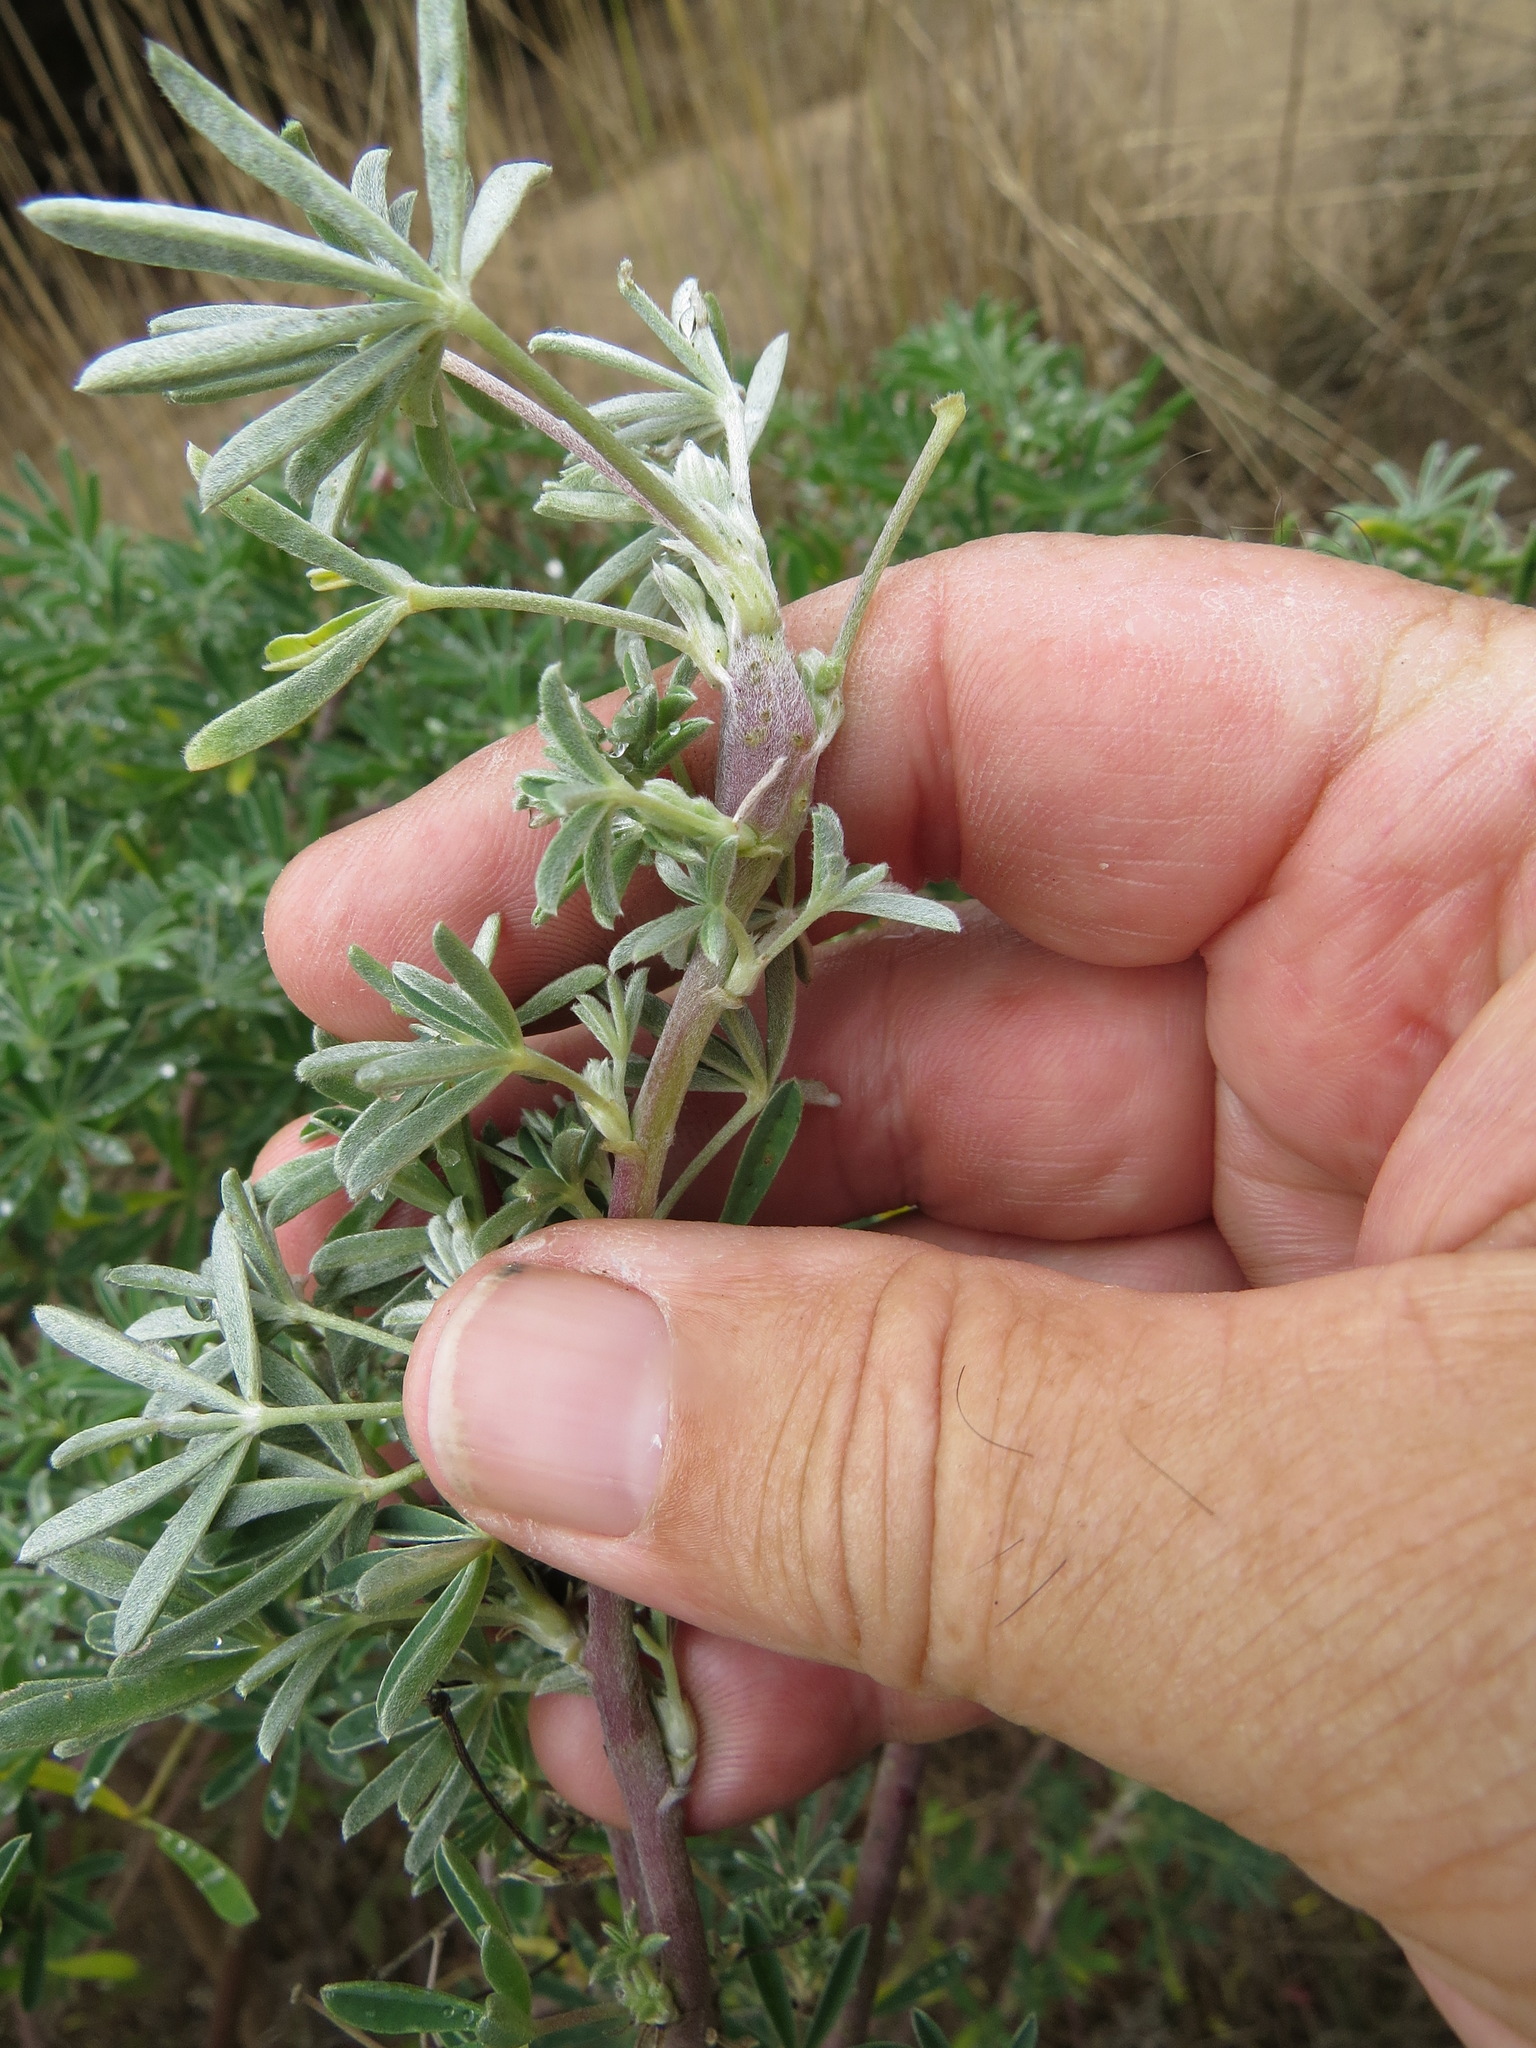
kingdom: Animalia
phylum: Arthropoda
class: Insecta
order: Diptera
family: Cecidomyiidae
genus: Neolasioptera
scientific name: Neolasioptera lupini
